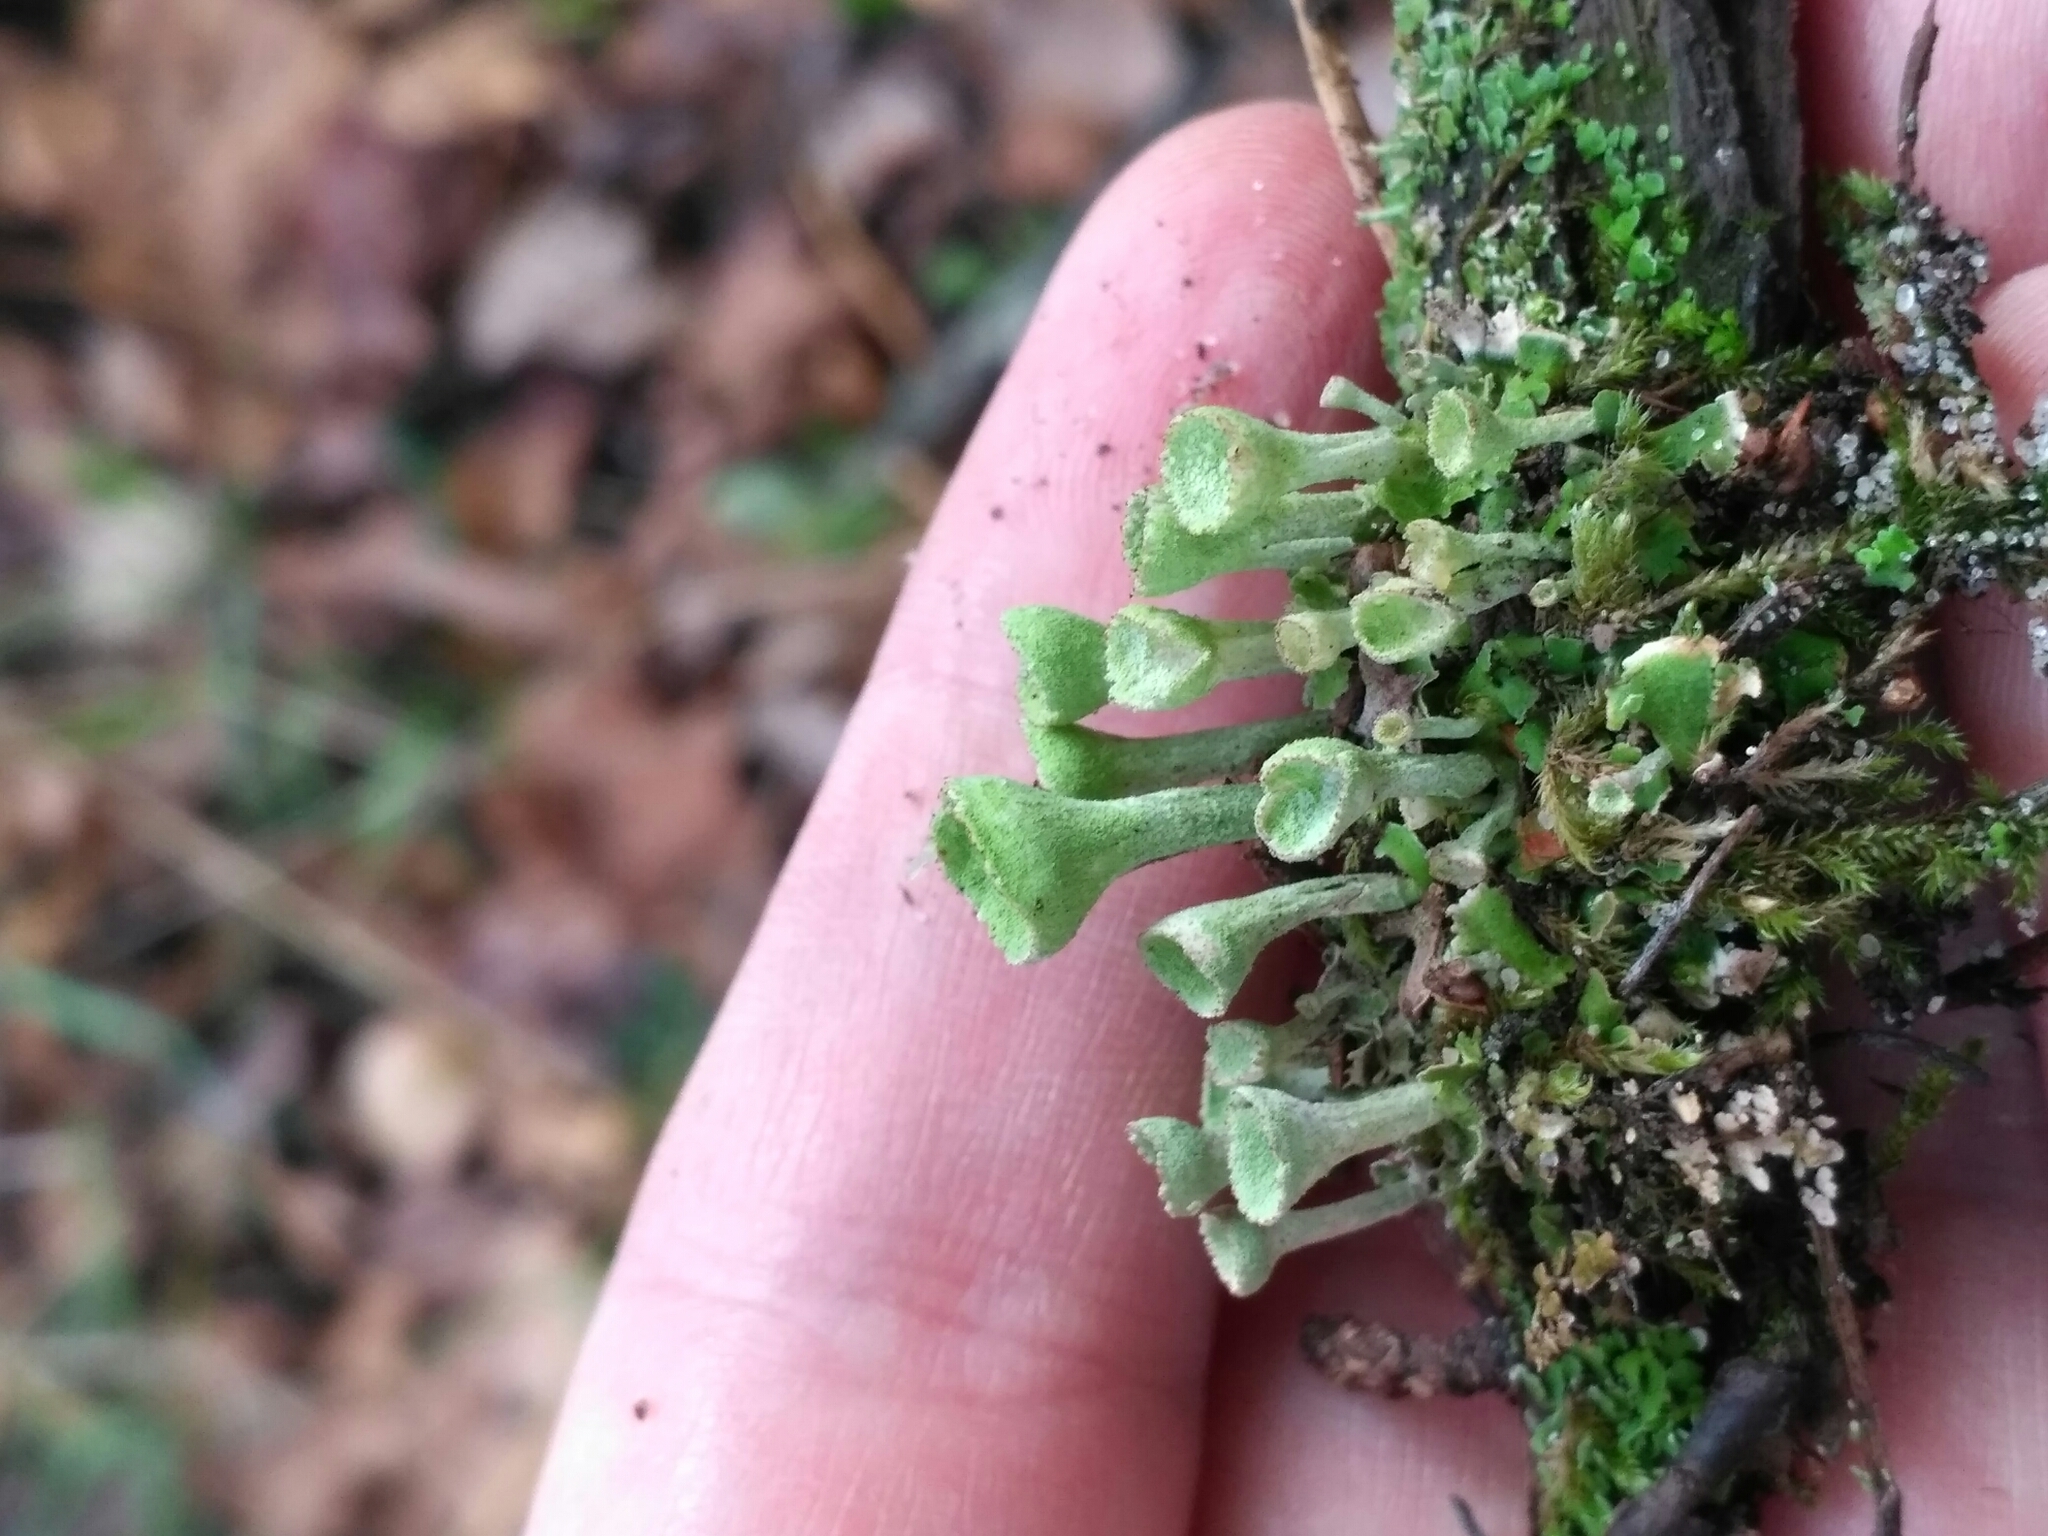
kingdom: Fungi
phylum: Ascomycota
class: Lecanoromycetes
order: Lecanorales
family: Cladoniaceae
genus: Cladonia
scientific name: Cladonia fimbriata
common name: Powdered trumpet lichen
